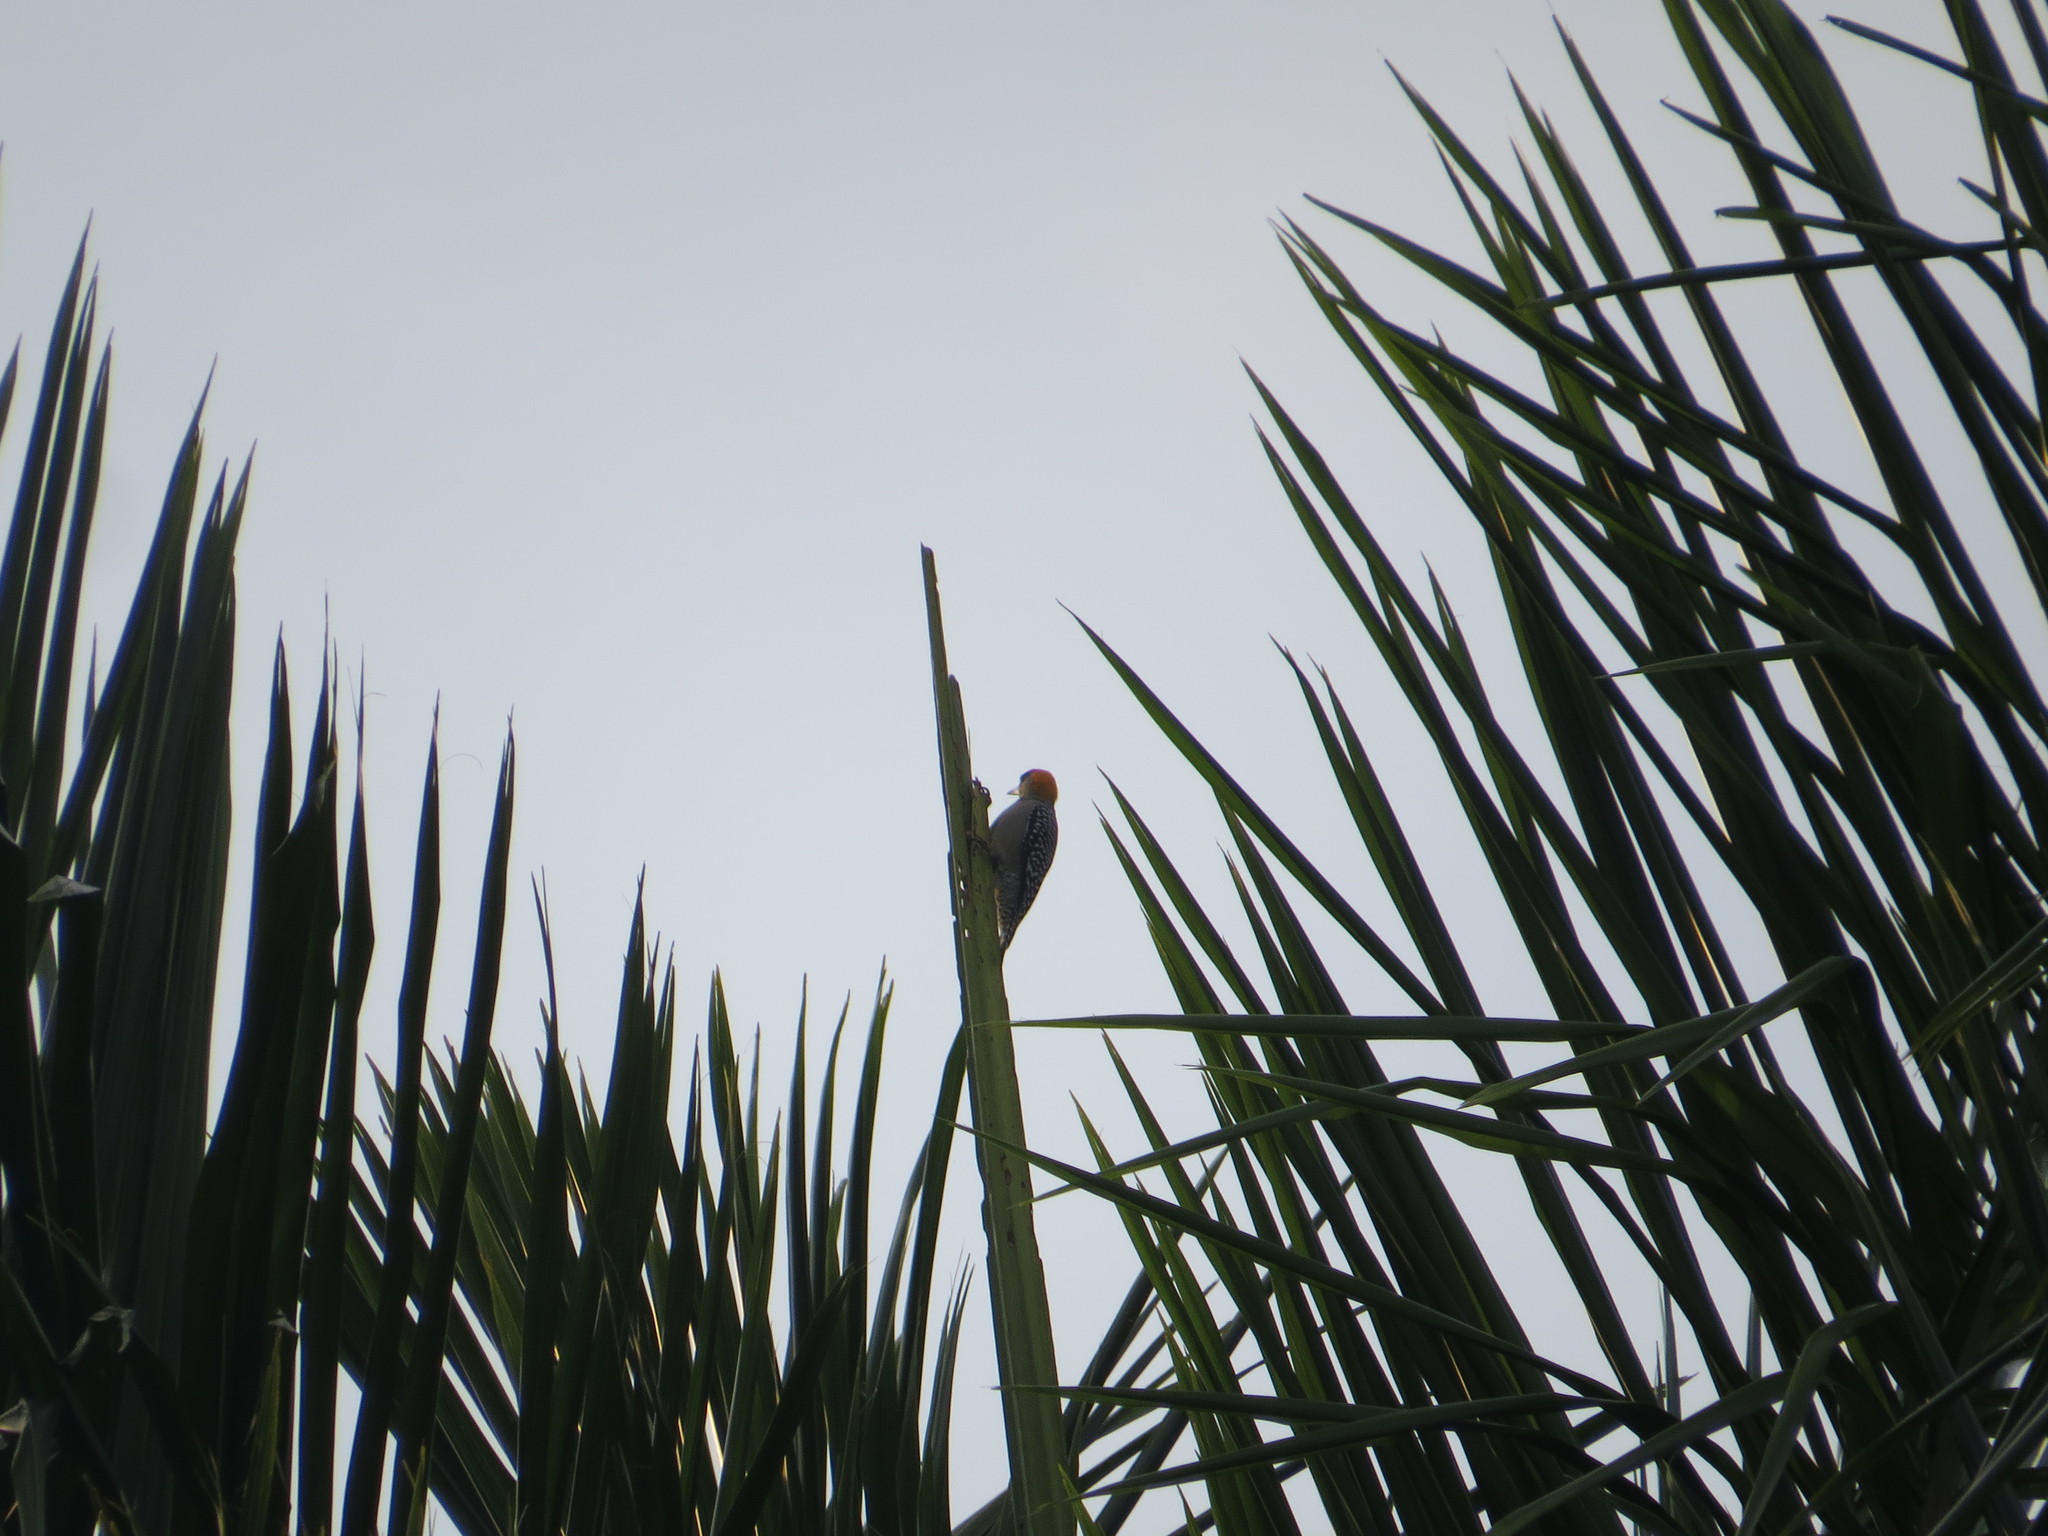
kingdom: Animalia
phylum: Chordata
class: Aves
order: Piciformes
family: Picidae
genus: Melanerpes
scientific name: Melanerpes chrysogenys
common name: Golden-cheeked woodpecker
